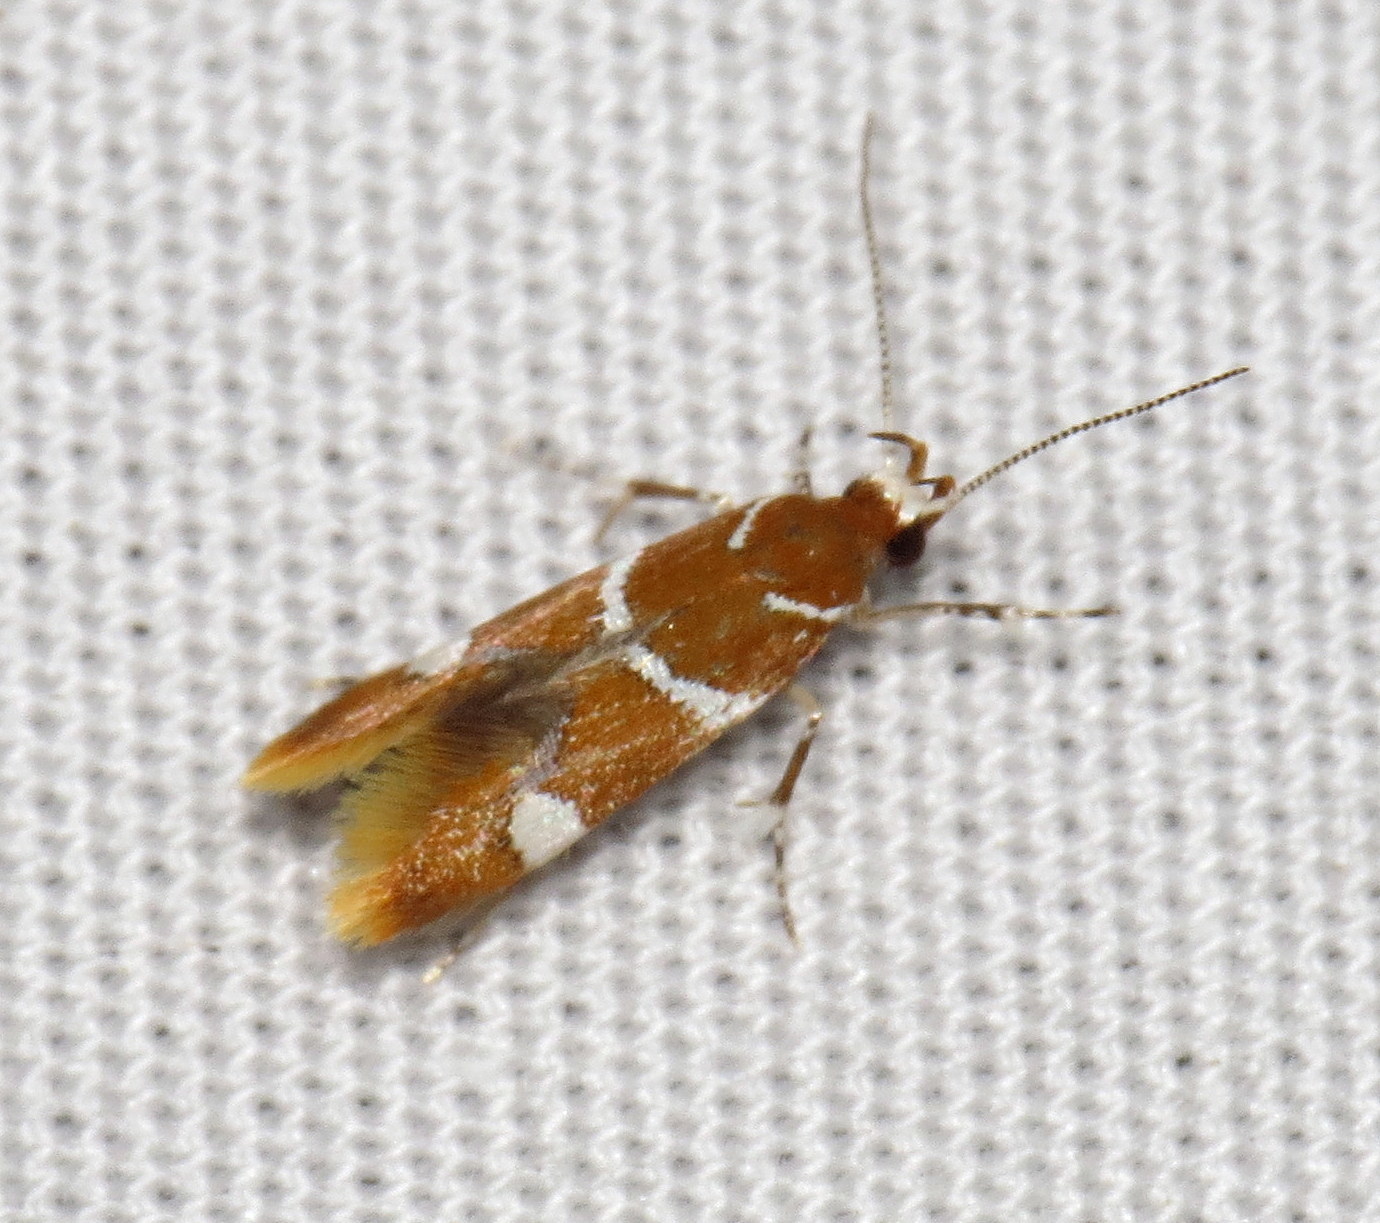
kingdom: Animalia
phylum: Arthropoda
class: Insecta
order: Lepidoptera
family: Oecophoridae
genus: Promalactis
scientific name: Promalactis suzukiella
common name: Moth
